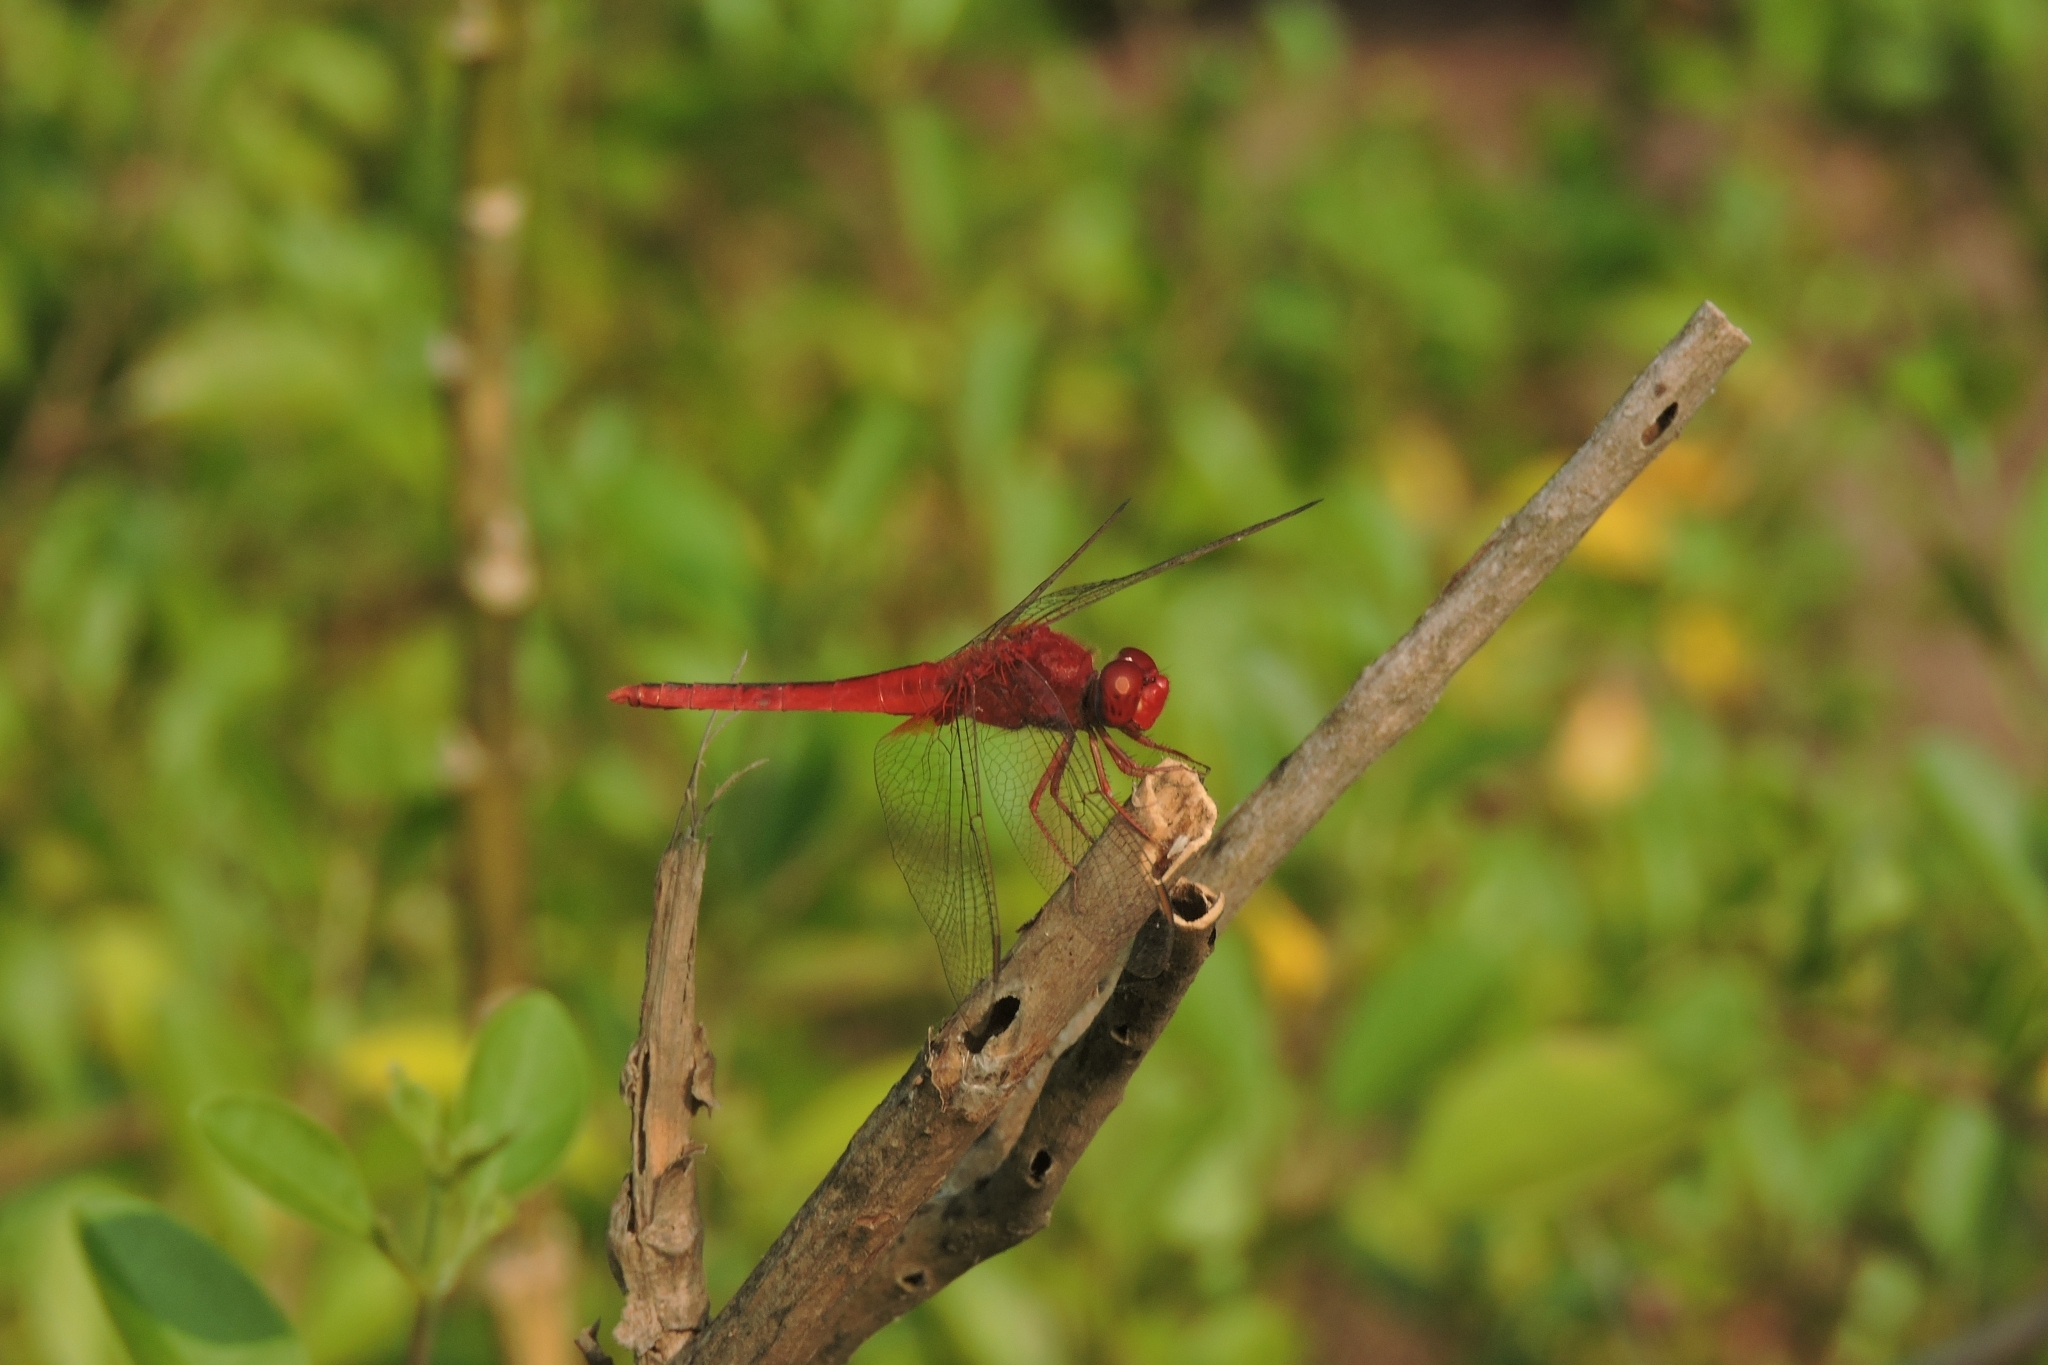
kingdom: Animalia
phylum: Arthropoda
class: Insecta
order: Odonata
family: Libellulidae
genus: Crocothemis
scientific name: Crocothemis servilia
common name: Scarlet skimmer
